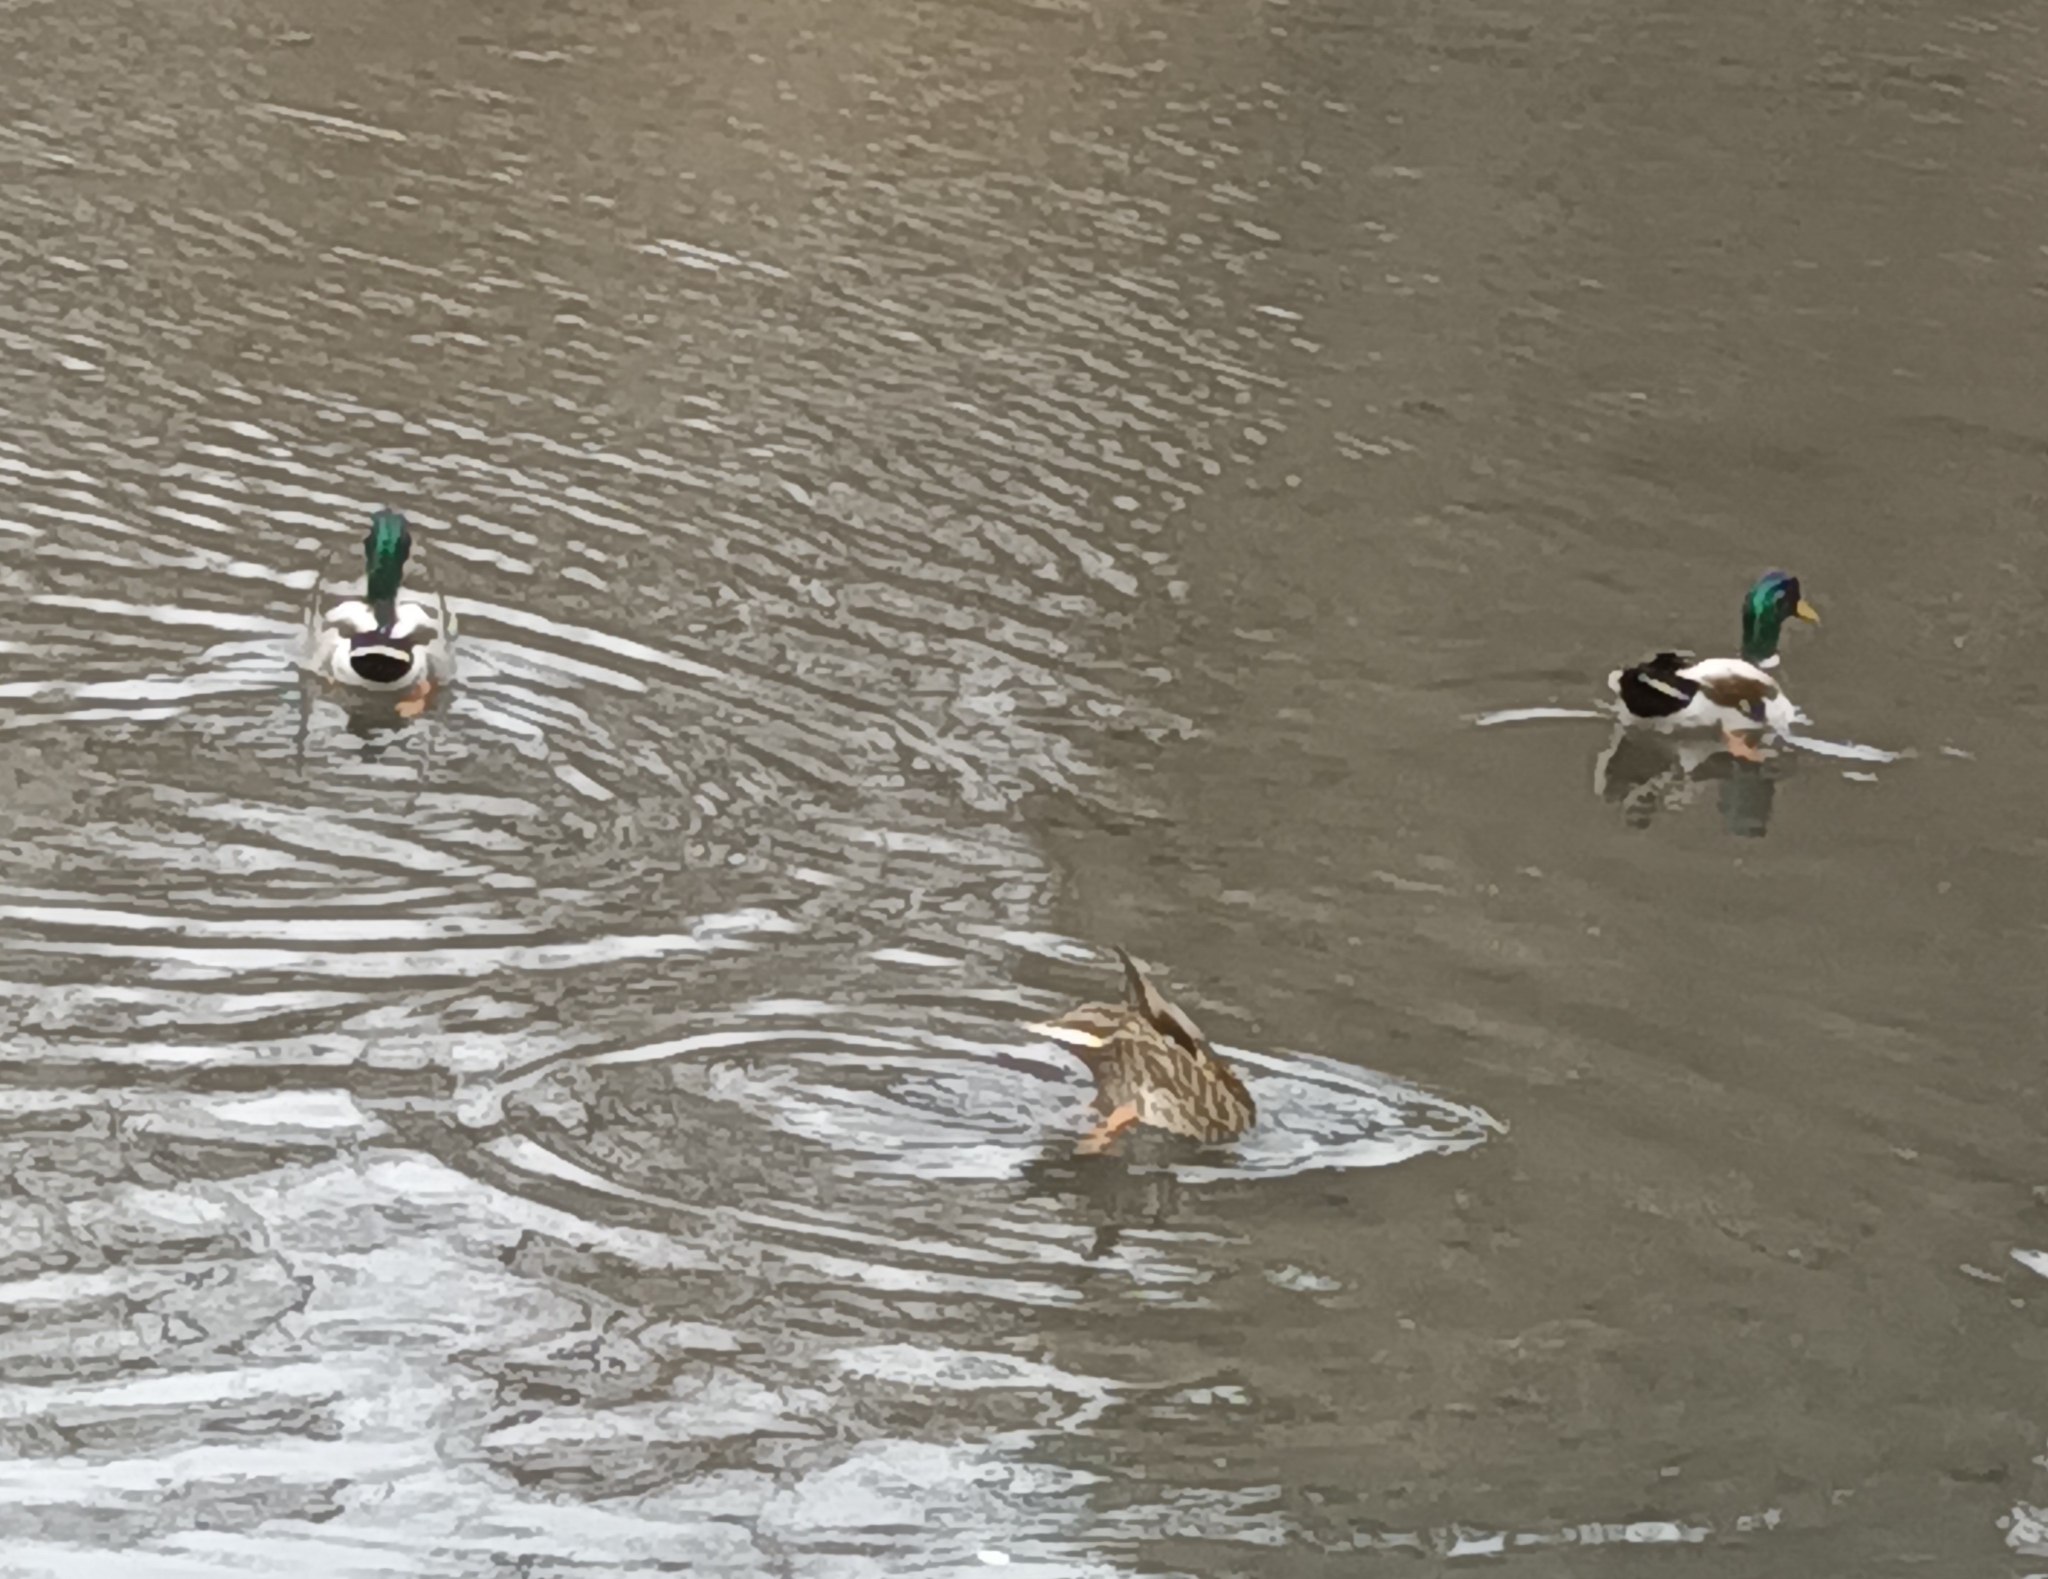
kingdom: Animalia
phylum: Chordata
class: Aves
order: Anseriformes
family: Anatidae
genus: Anas
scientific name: Anas platyrhynchos
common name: Mallard
